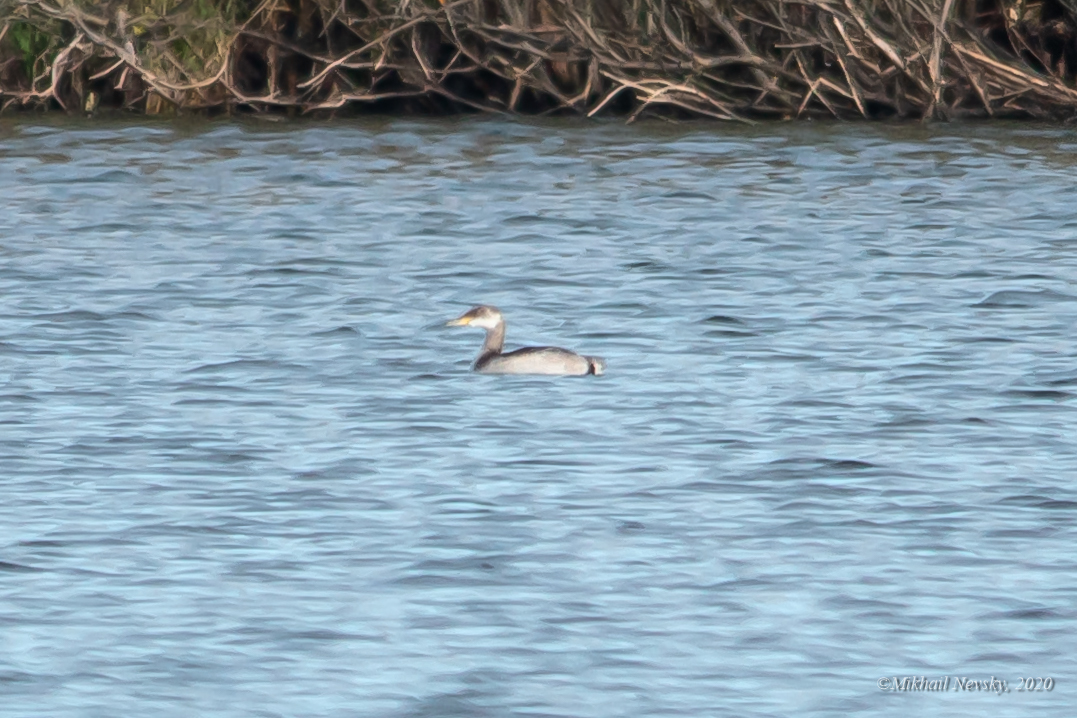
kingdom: Animalia
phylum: Chordata
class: Aves
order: Podicipediformes
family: Podicipedidae
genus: Podiceps
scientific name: Podiceps grisegena
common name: Red-necked grebe
